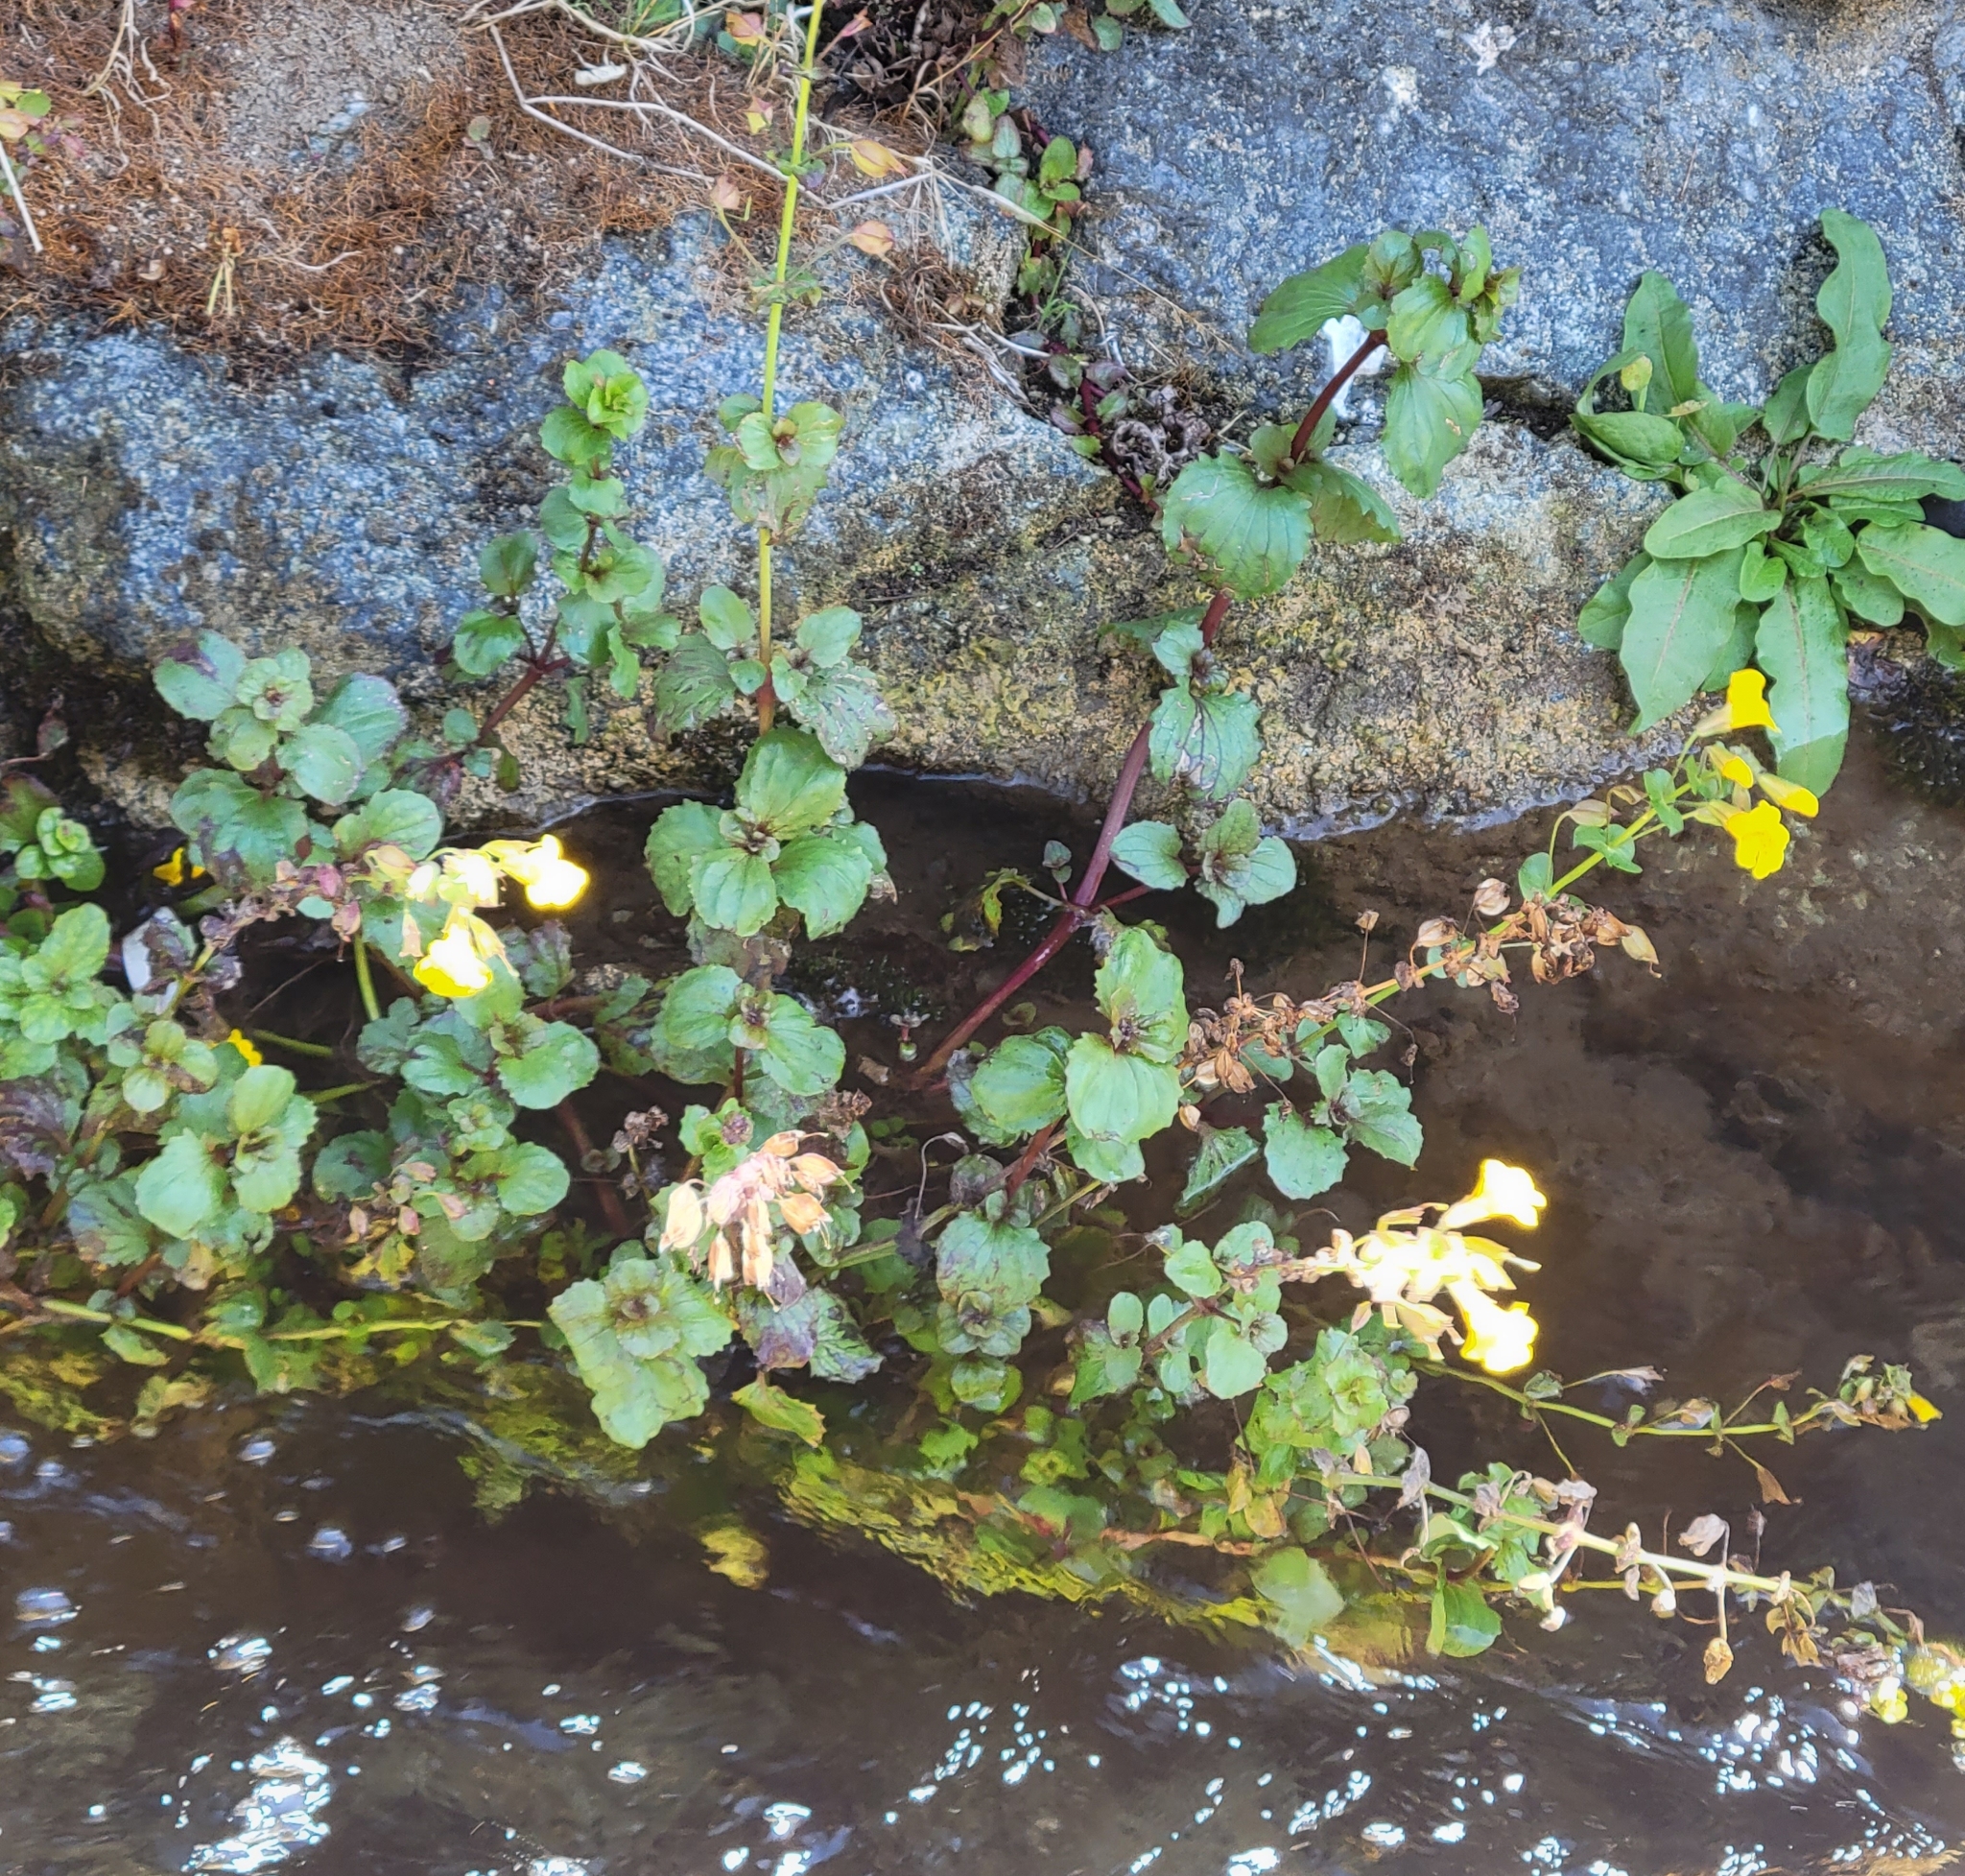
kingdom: Plantae
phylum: Tracheophyta
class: Magnoliopsida
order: Lamiales
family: Phrymaceae
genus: Erythranthe
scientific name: Erythranthe grandis
